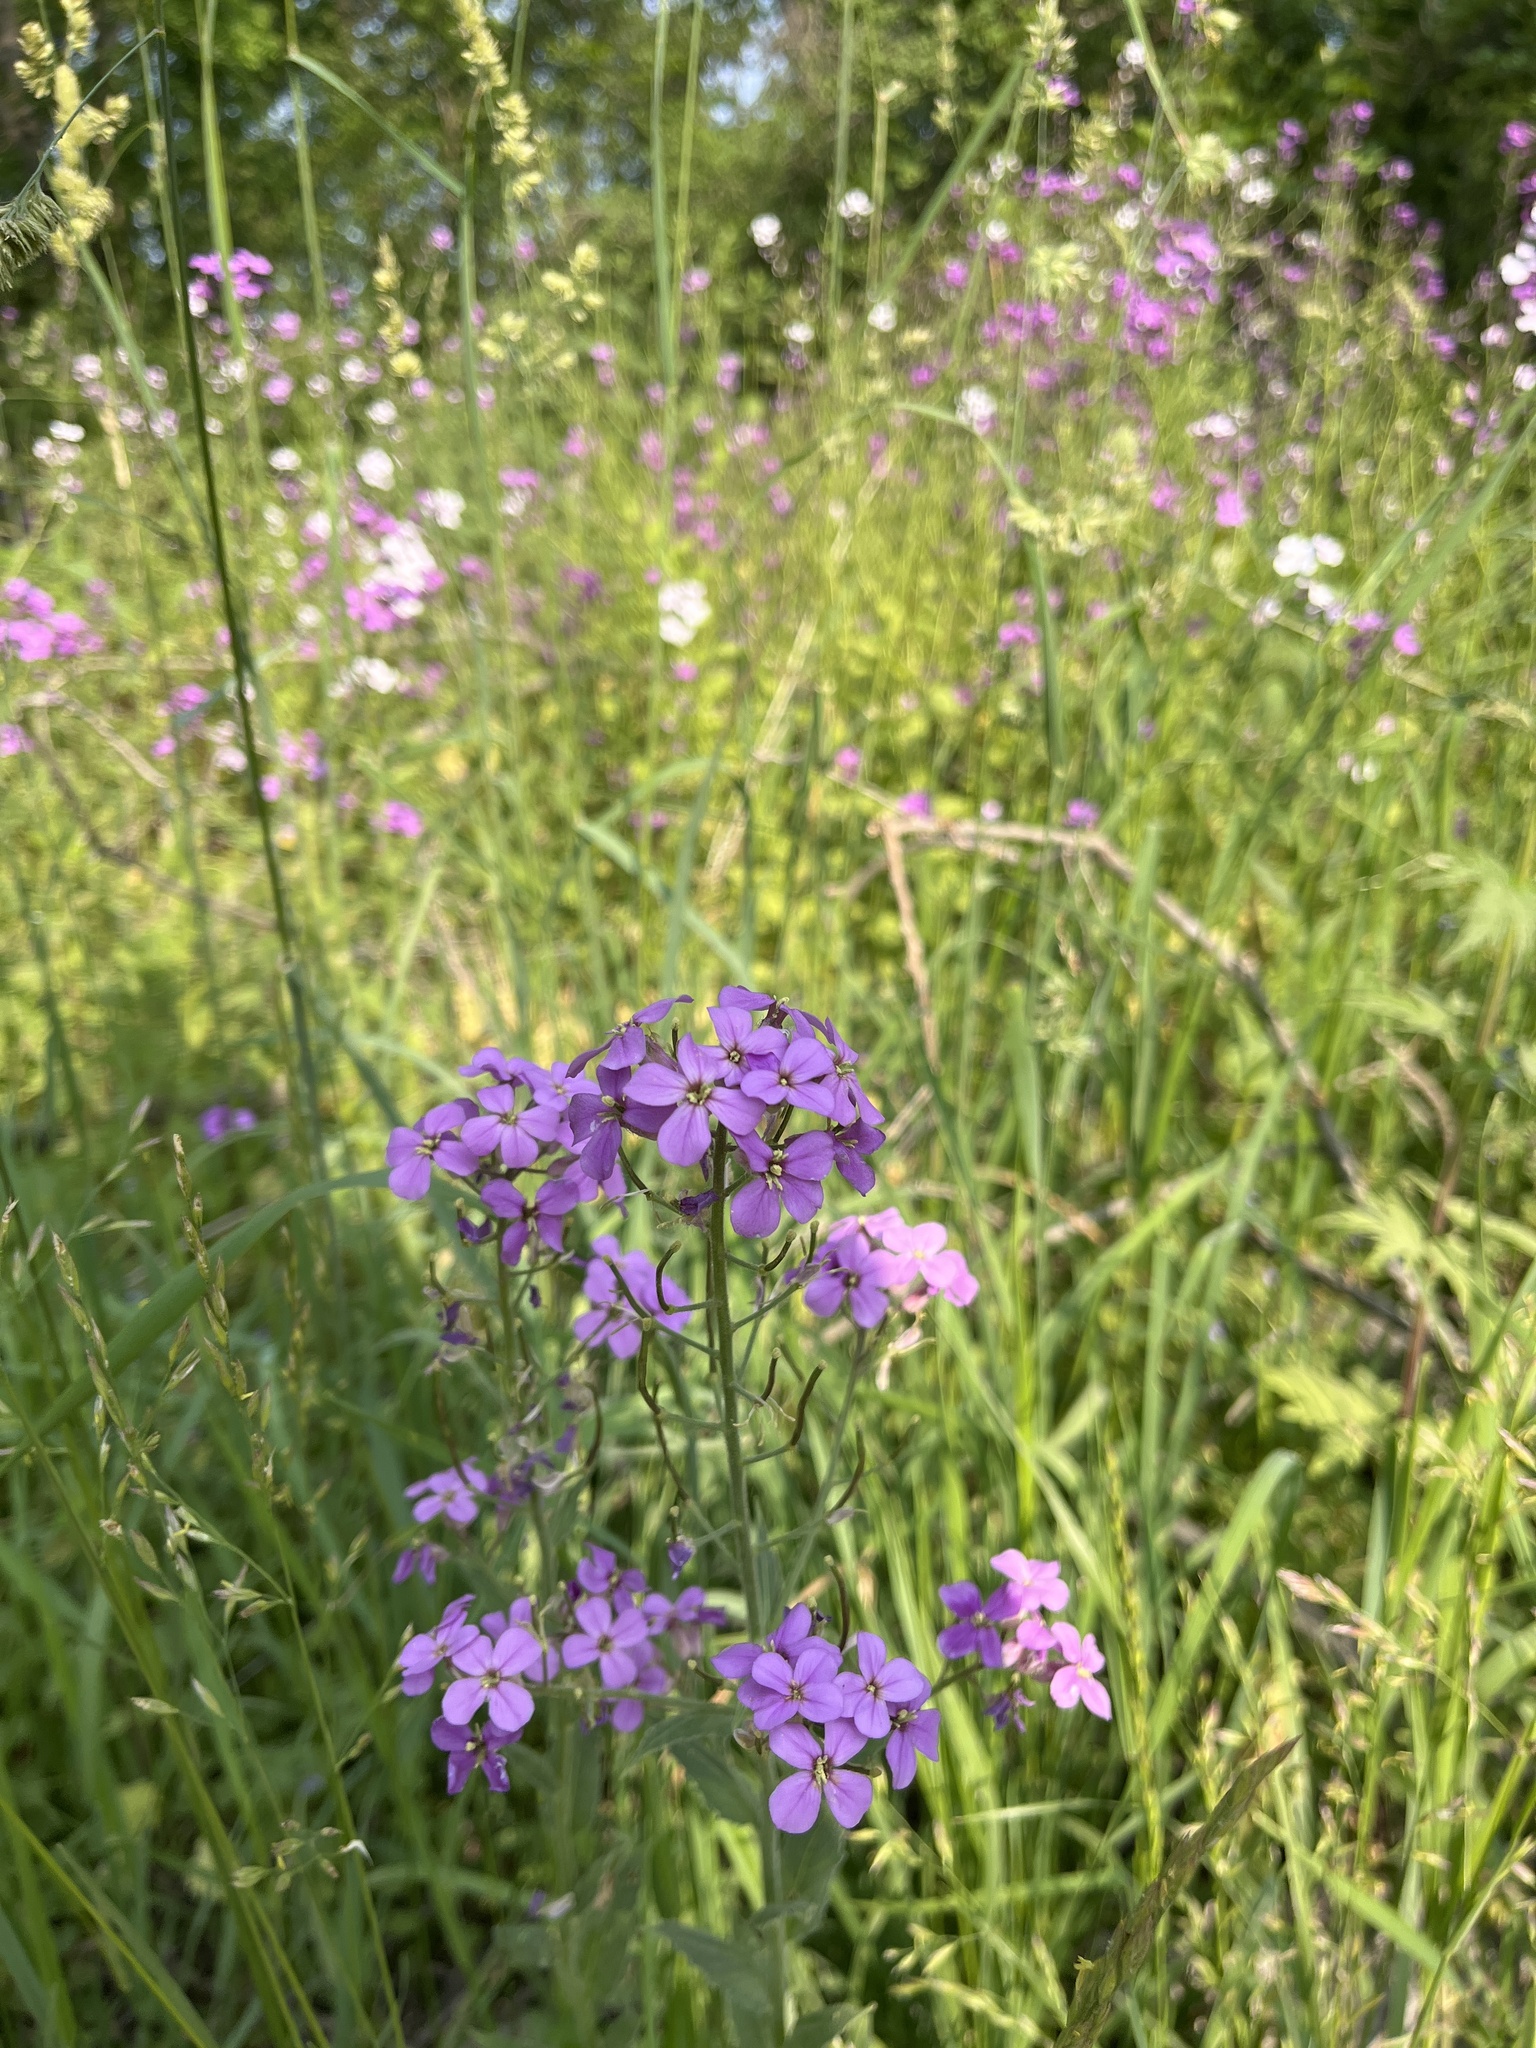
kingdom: Plantae
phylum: Tracheophyta
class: Magnoliopsida
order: Brassicales
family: Brassicaceae
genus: Hesperis
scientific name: Hesperis matronalis
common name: Dame's-violet
